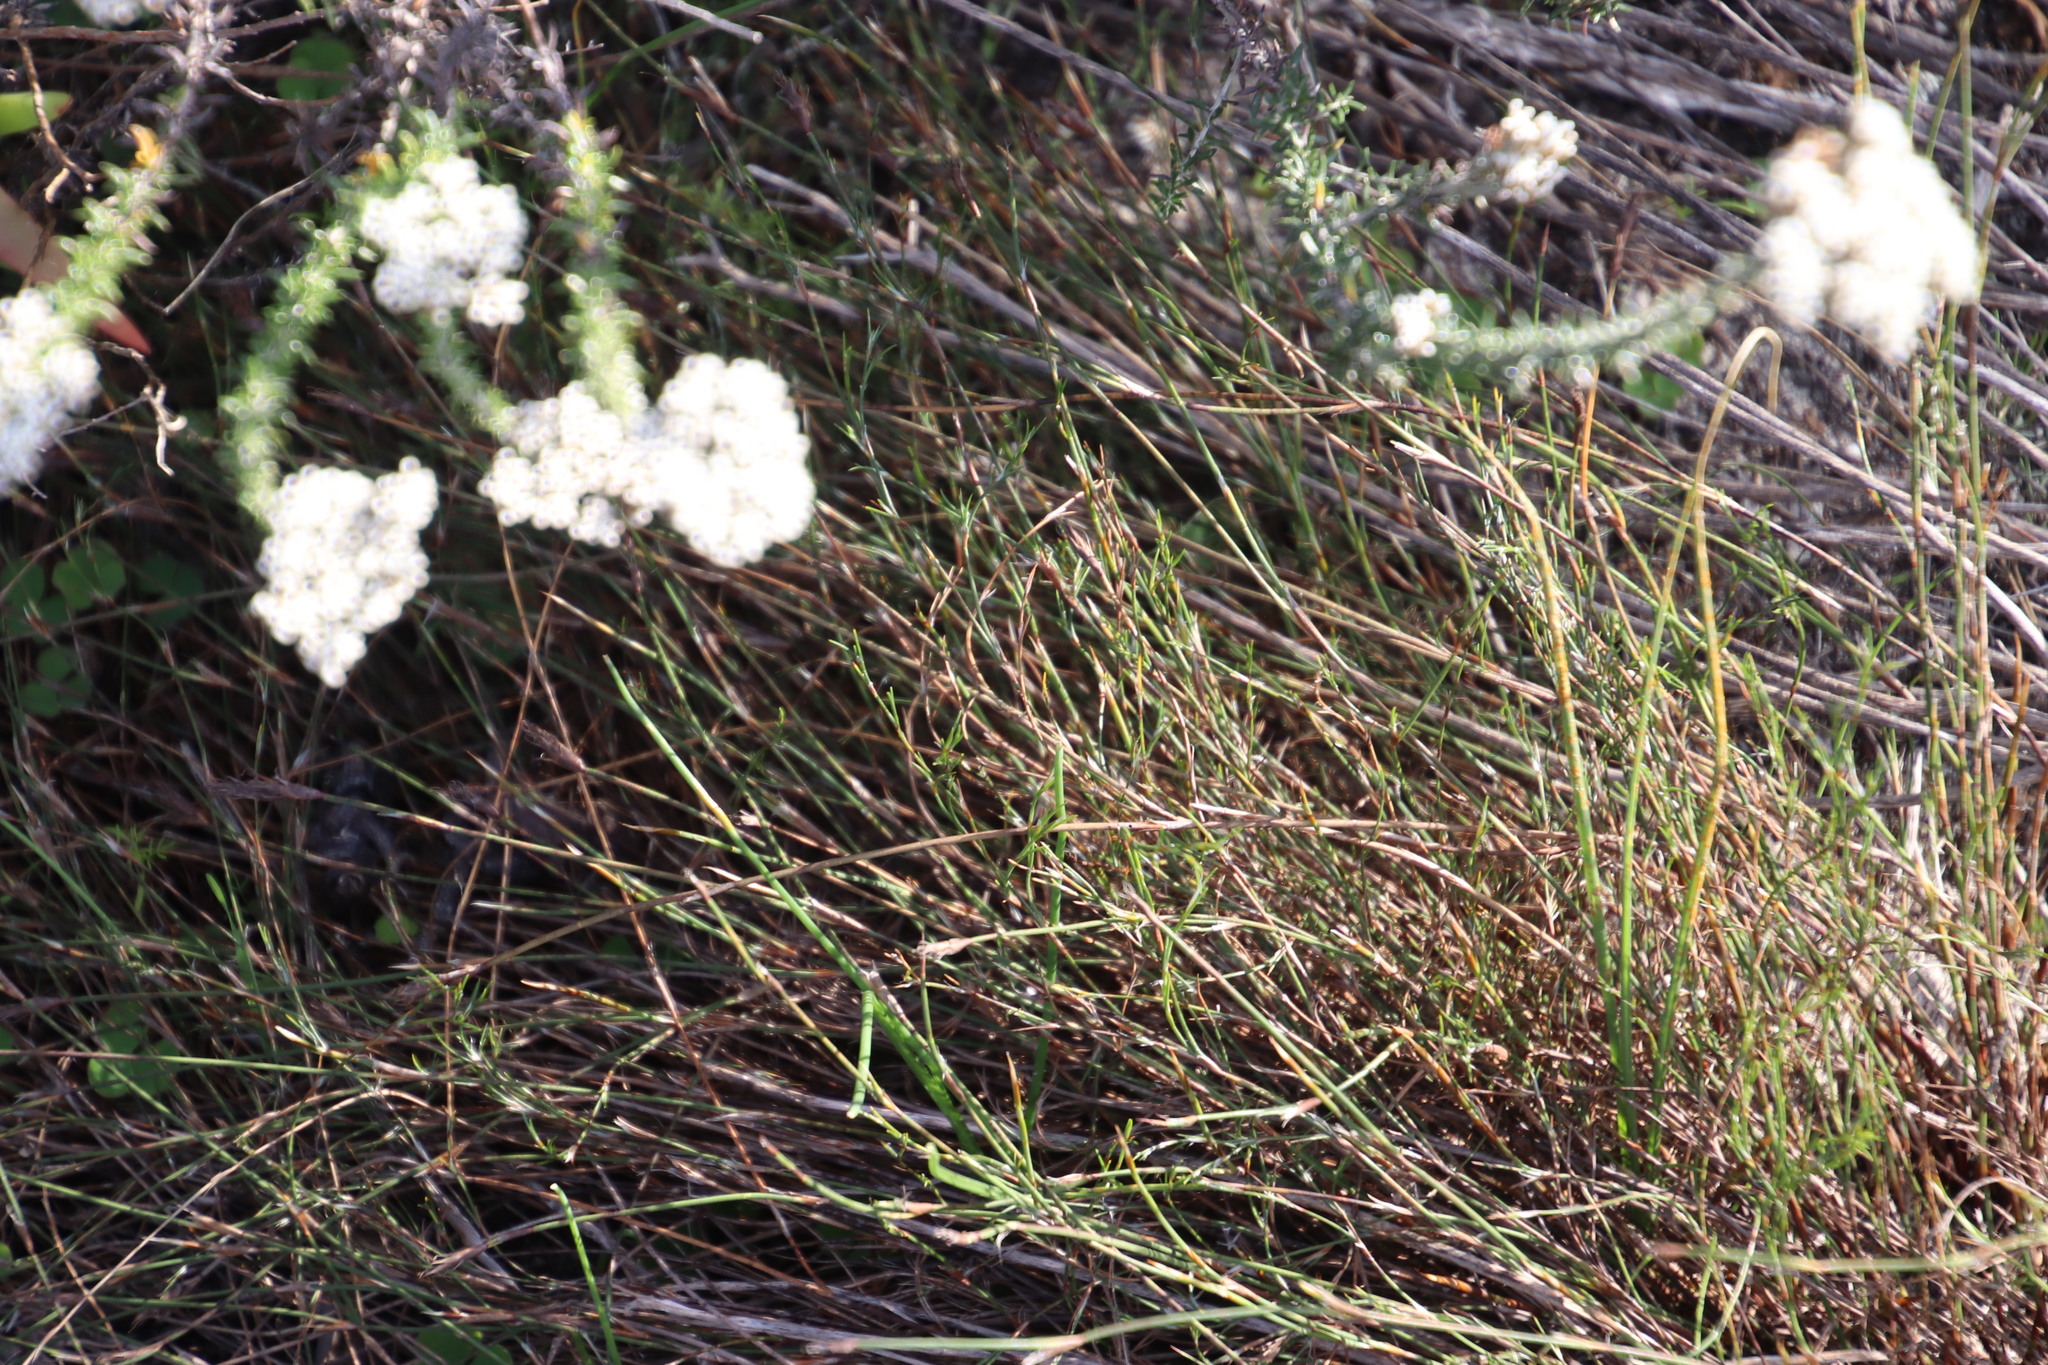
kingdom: Plantae
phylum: Tracheophyta
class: Liliopsida
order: Poales
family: Restionaceae
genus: Restio
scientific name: Restio capensis
